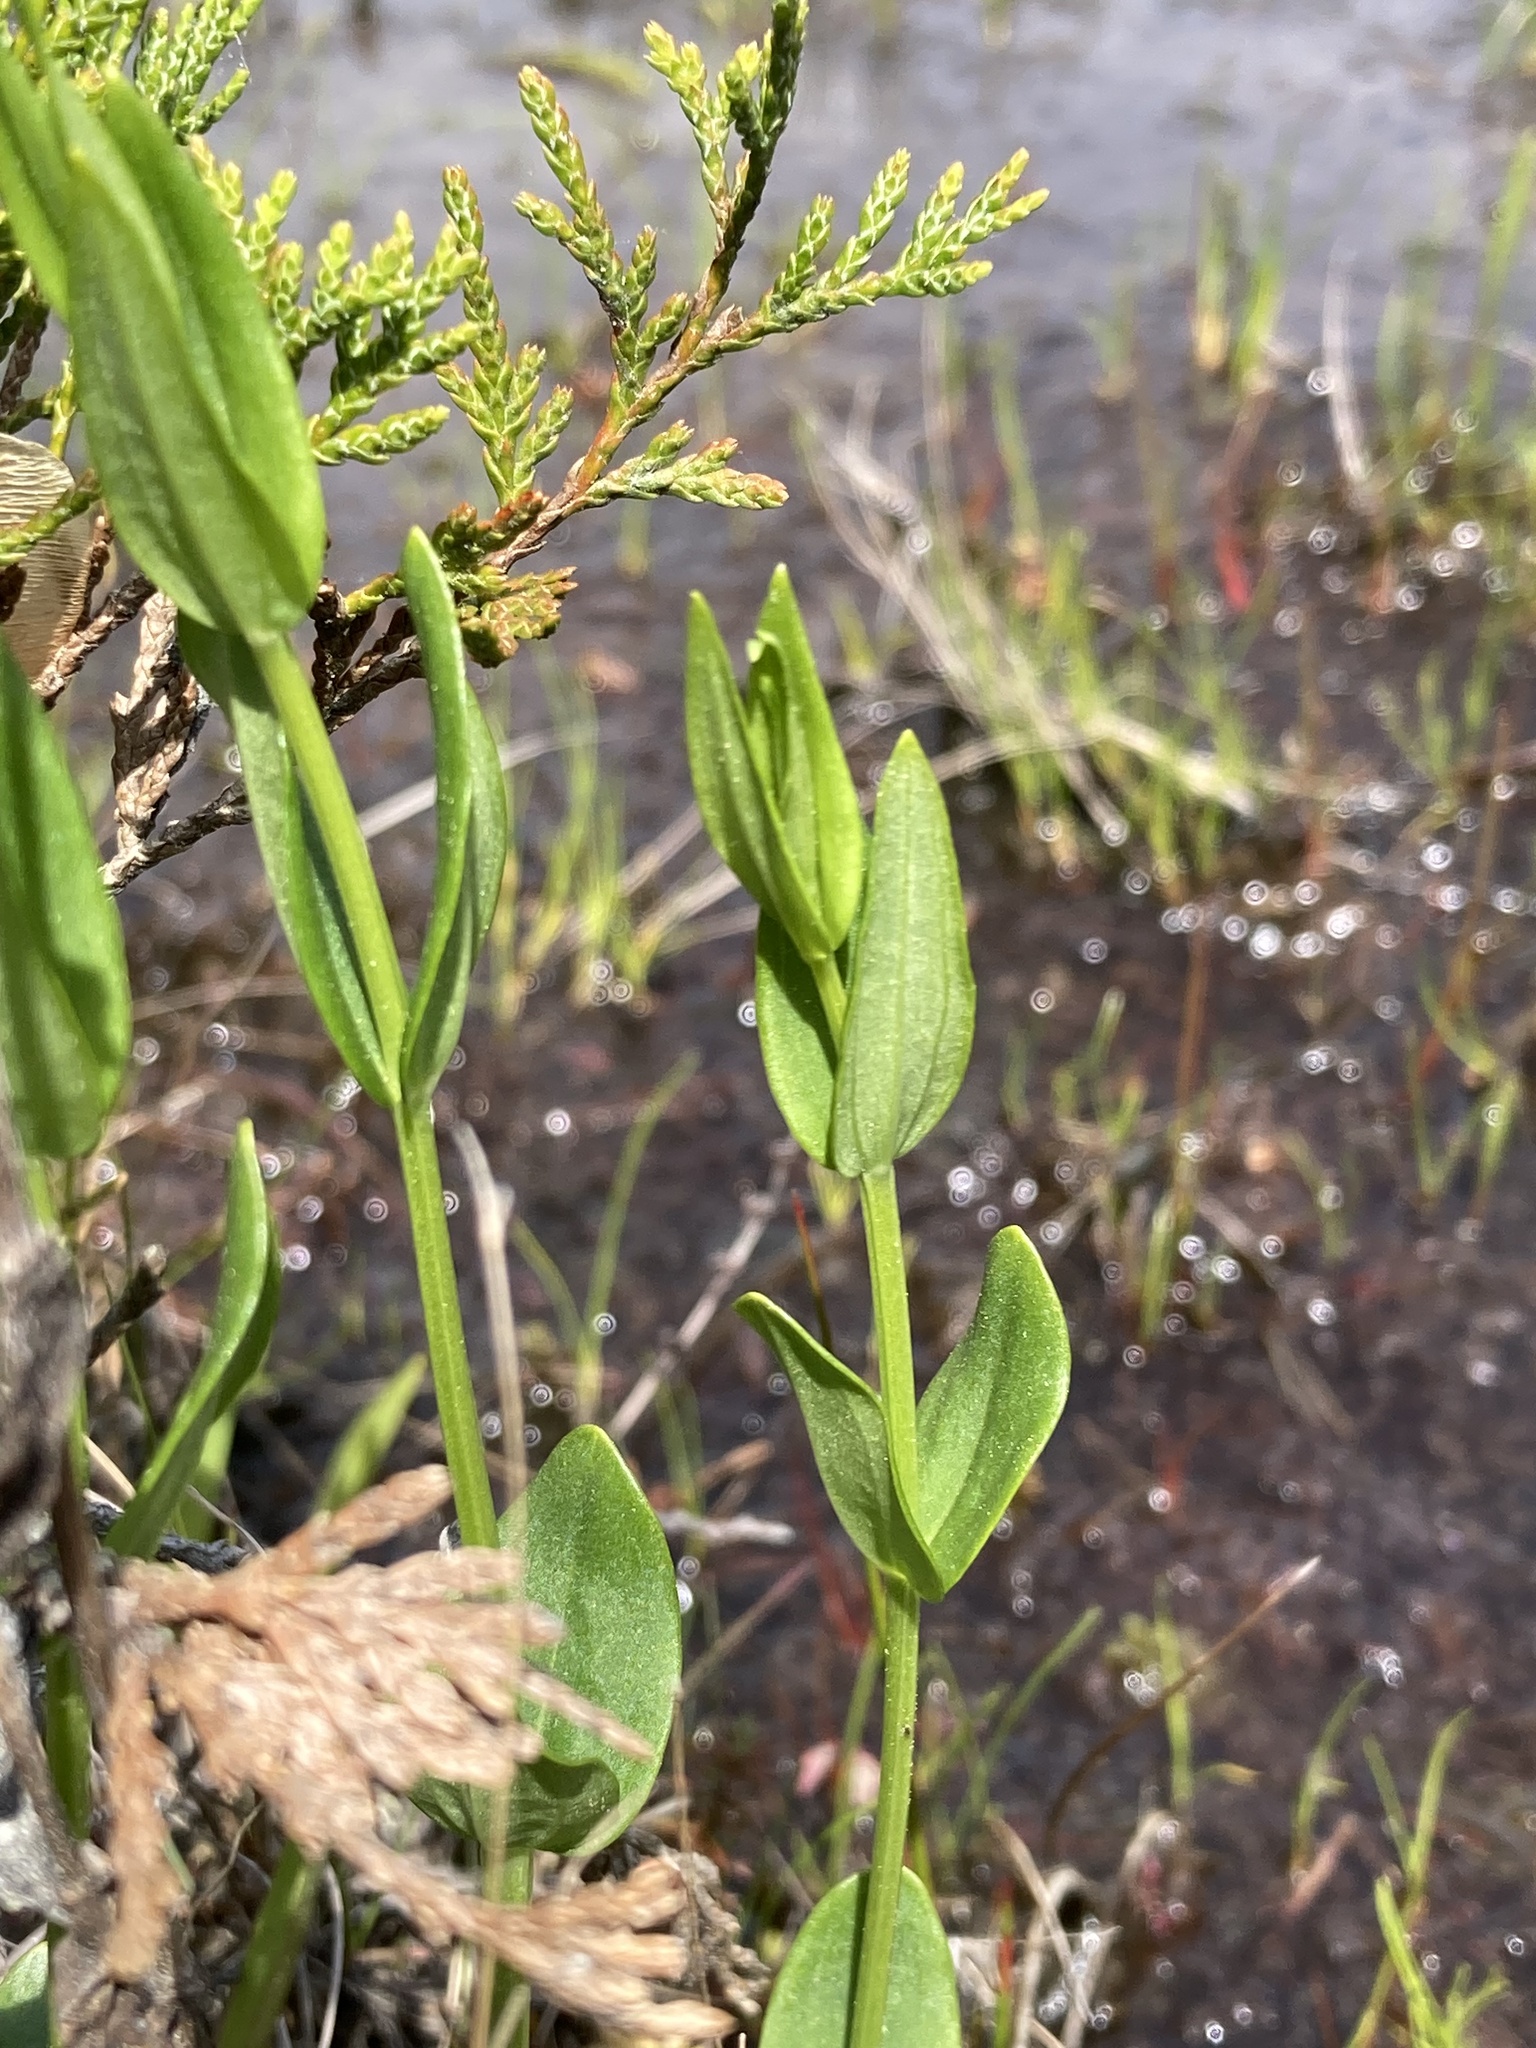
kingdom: Plantae
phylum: Tracheophyta
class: Magnoliopsida
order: Gentianales
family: Gentianaceae
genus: Sabatia
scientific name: Sabatia difformis
